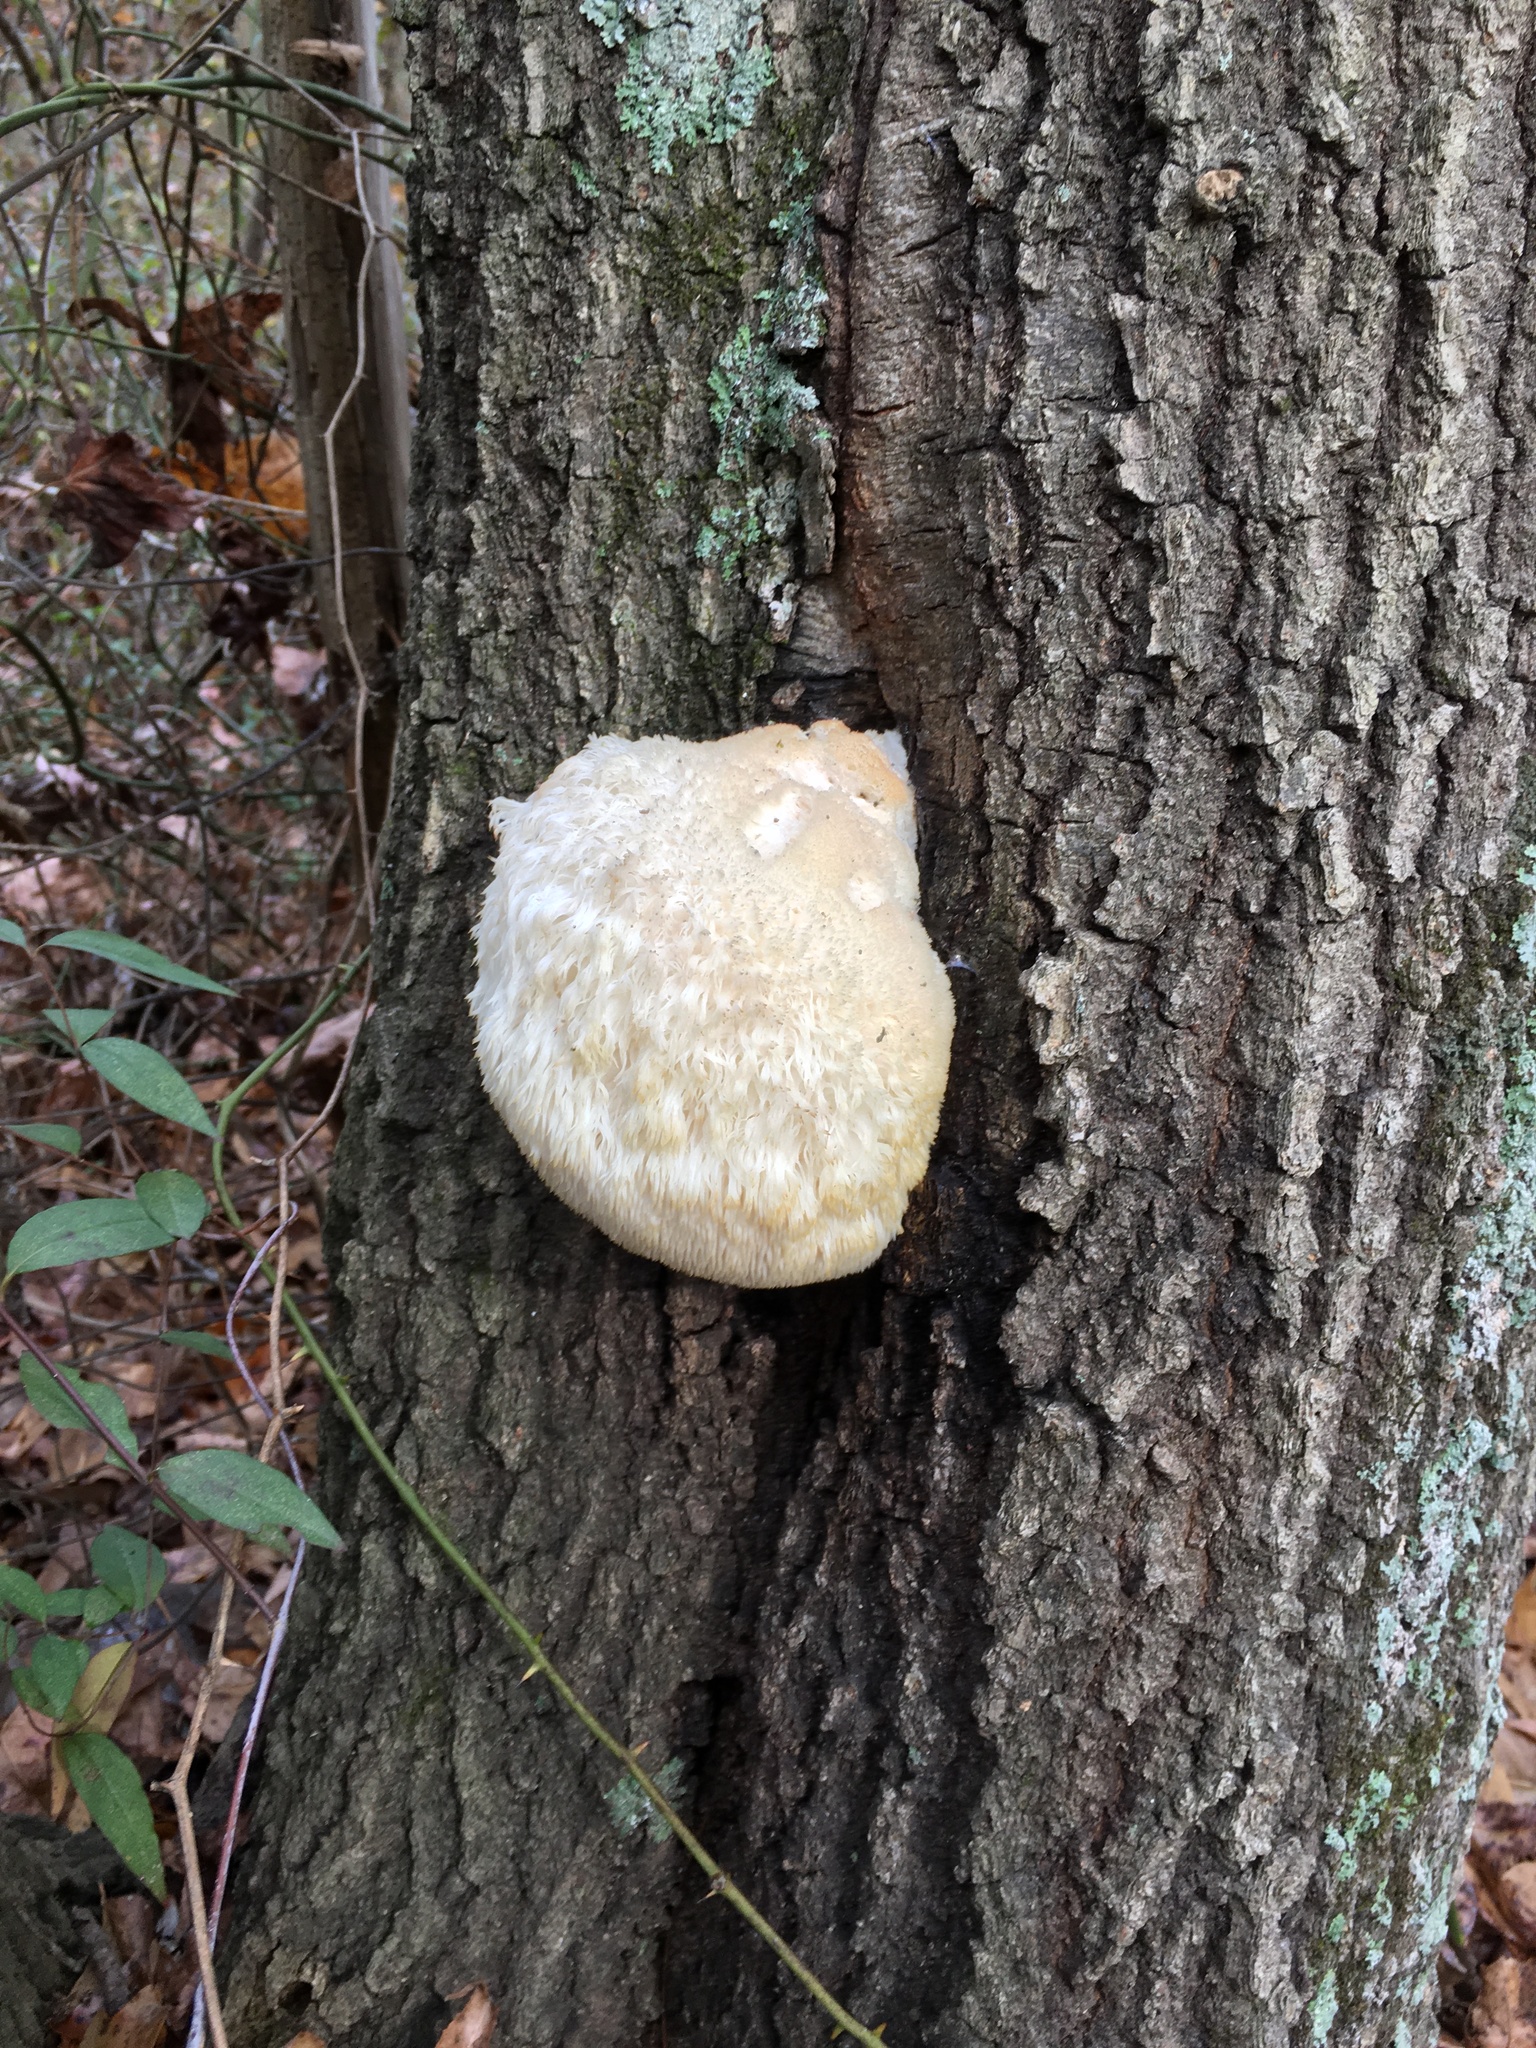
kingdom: Fungi
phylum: Basidiomycota
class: Agaricomycetes
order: Russulales
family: Hericiaceae
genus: Hericium
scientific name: Hericium erinaceus
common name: Bearded tooth
